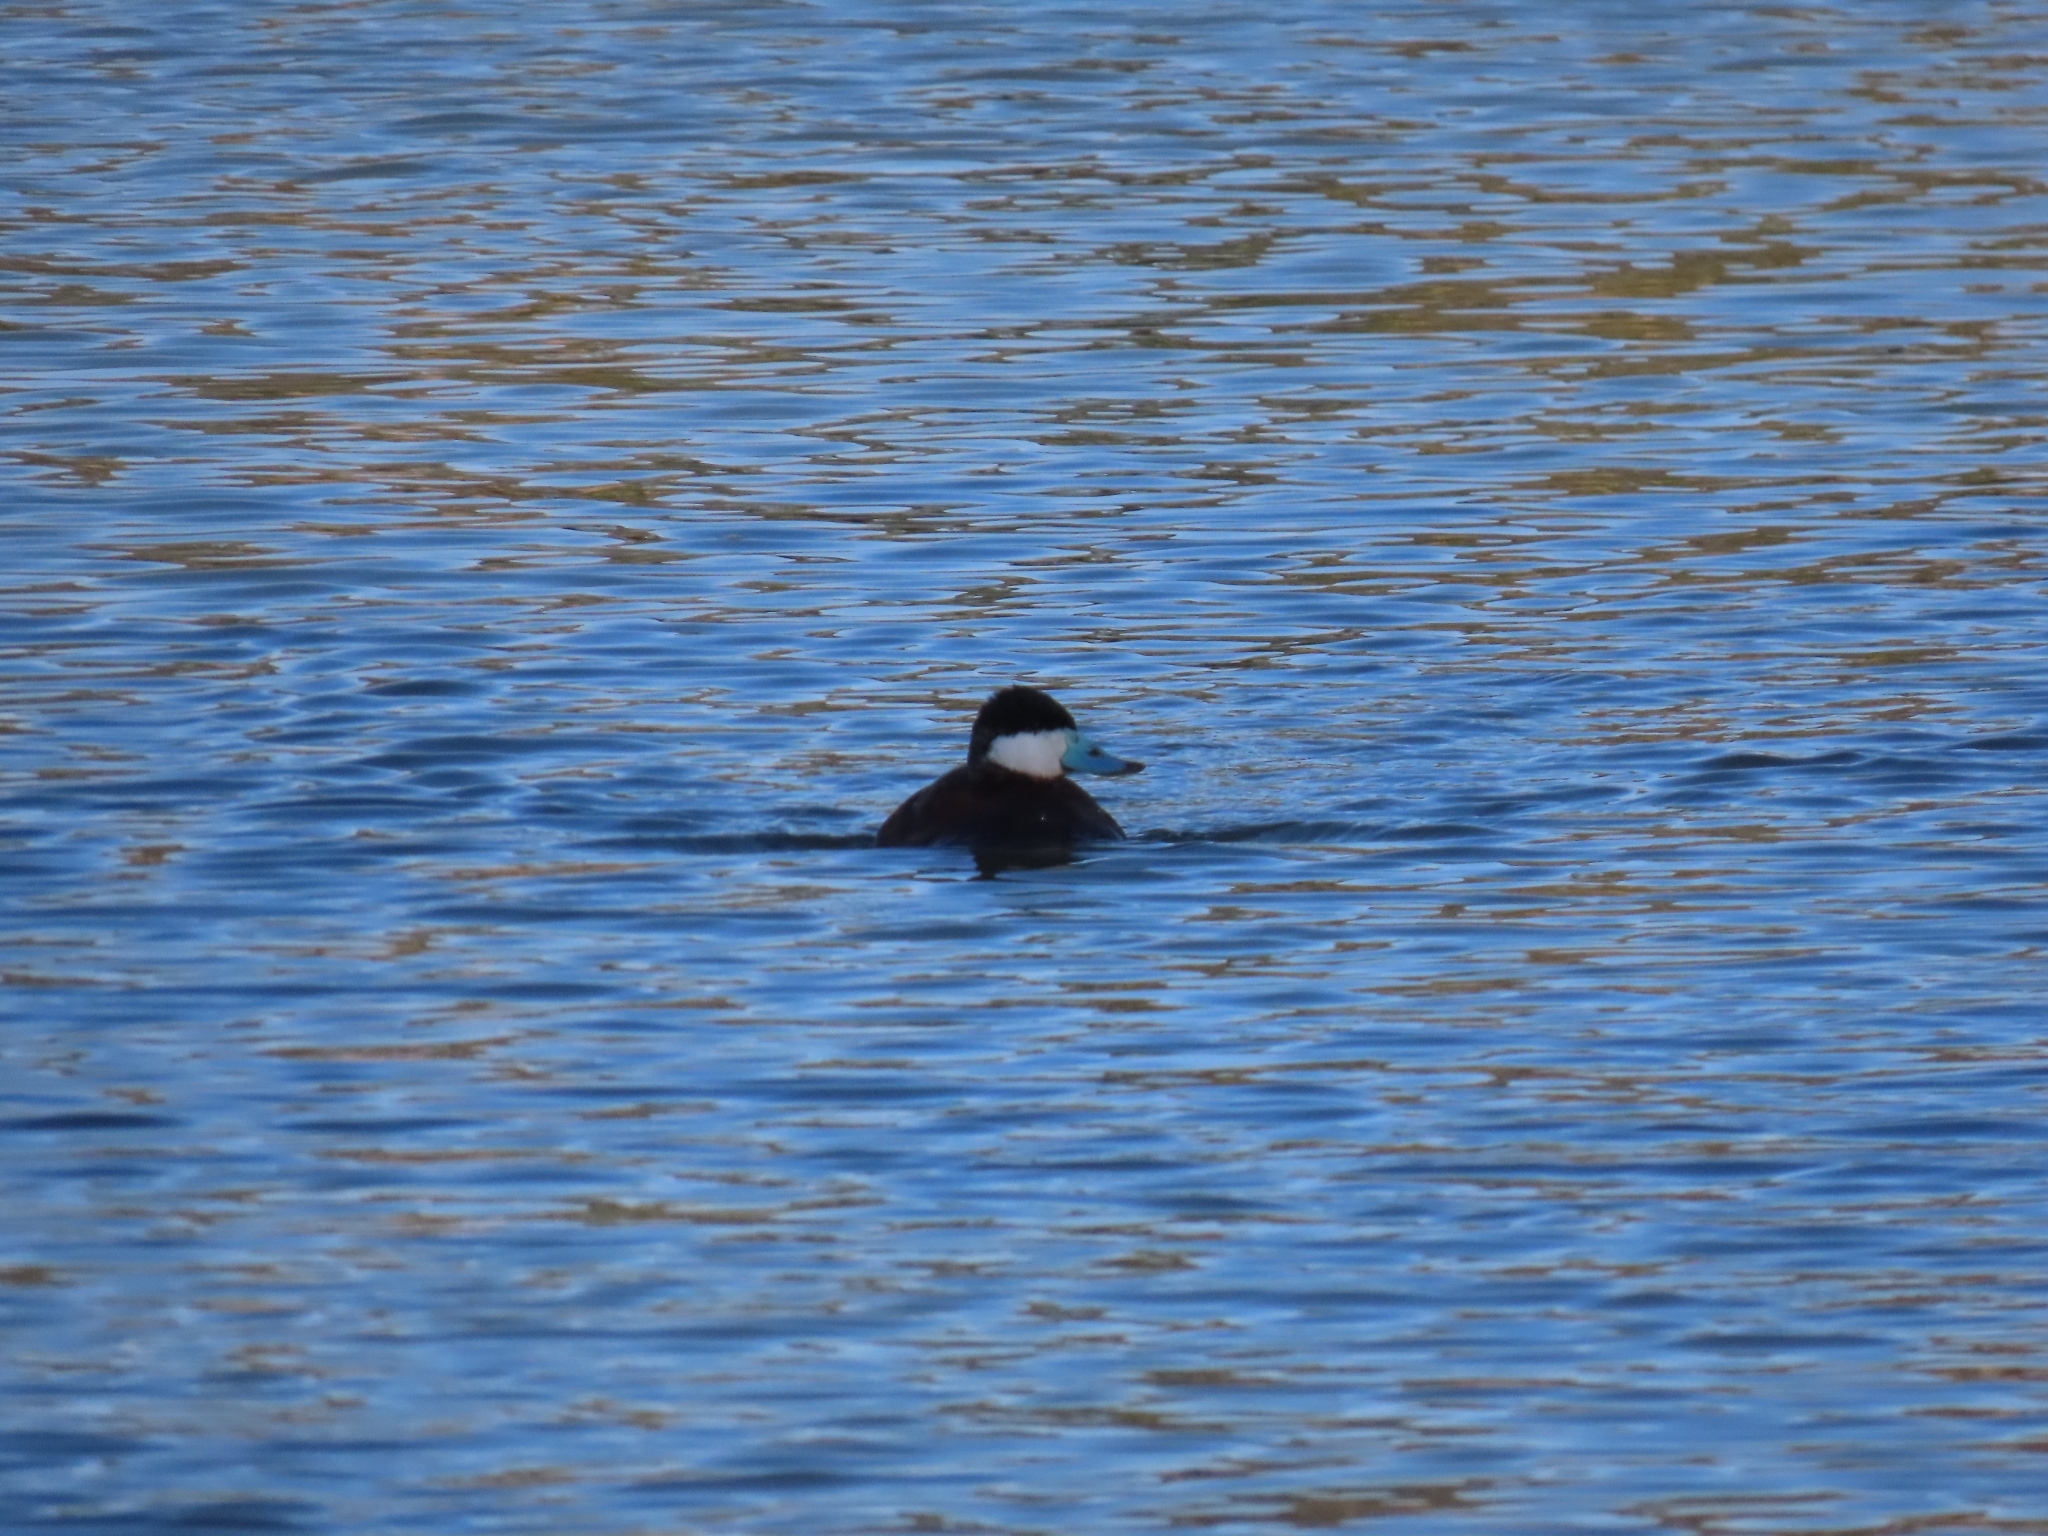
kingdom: Animalia
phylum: Chordata
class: Aves
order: Anseriformes
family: Anatidae
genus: Oxyura
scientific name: Oxyura jamaicensis
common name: Ruddy duck
